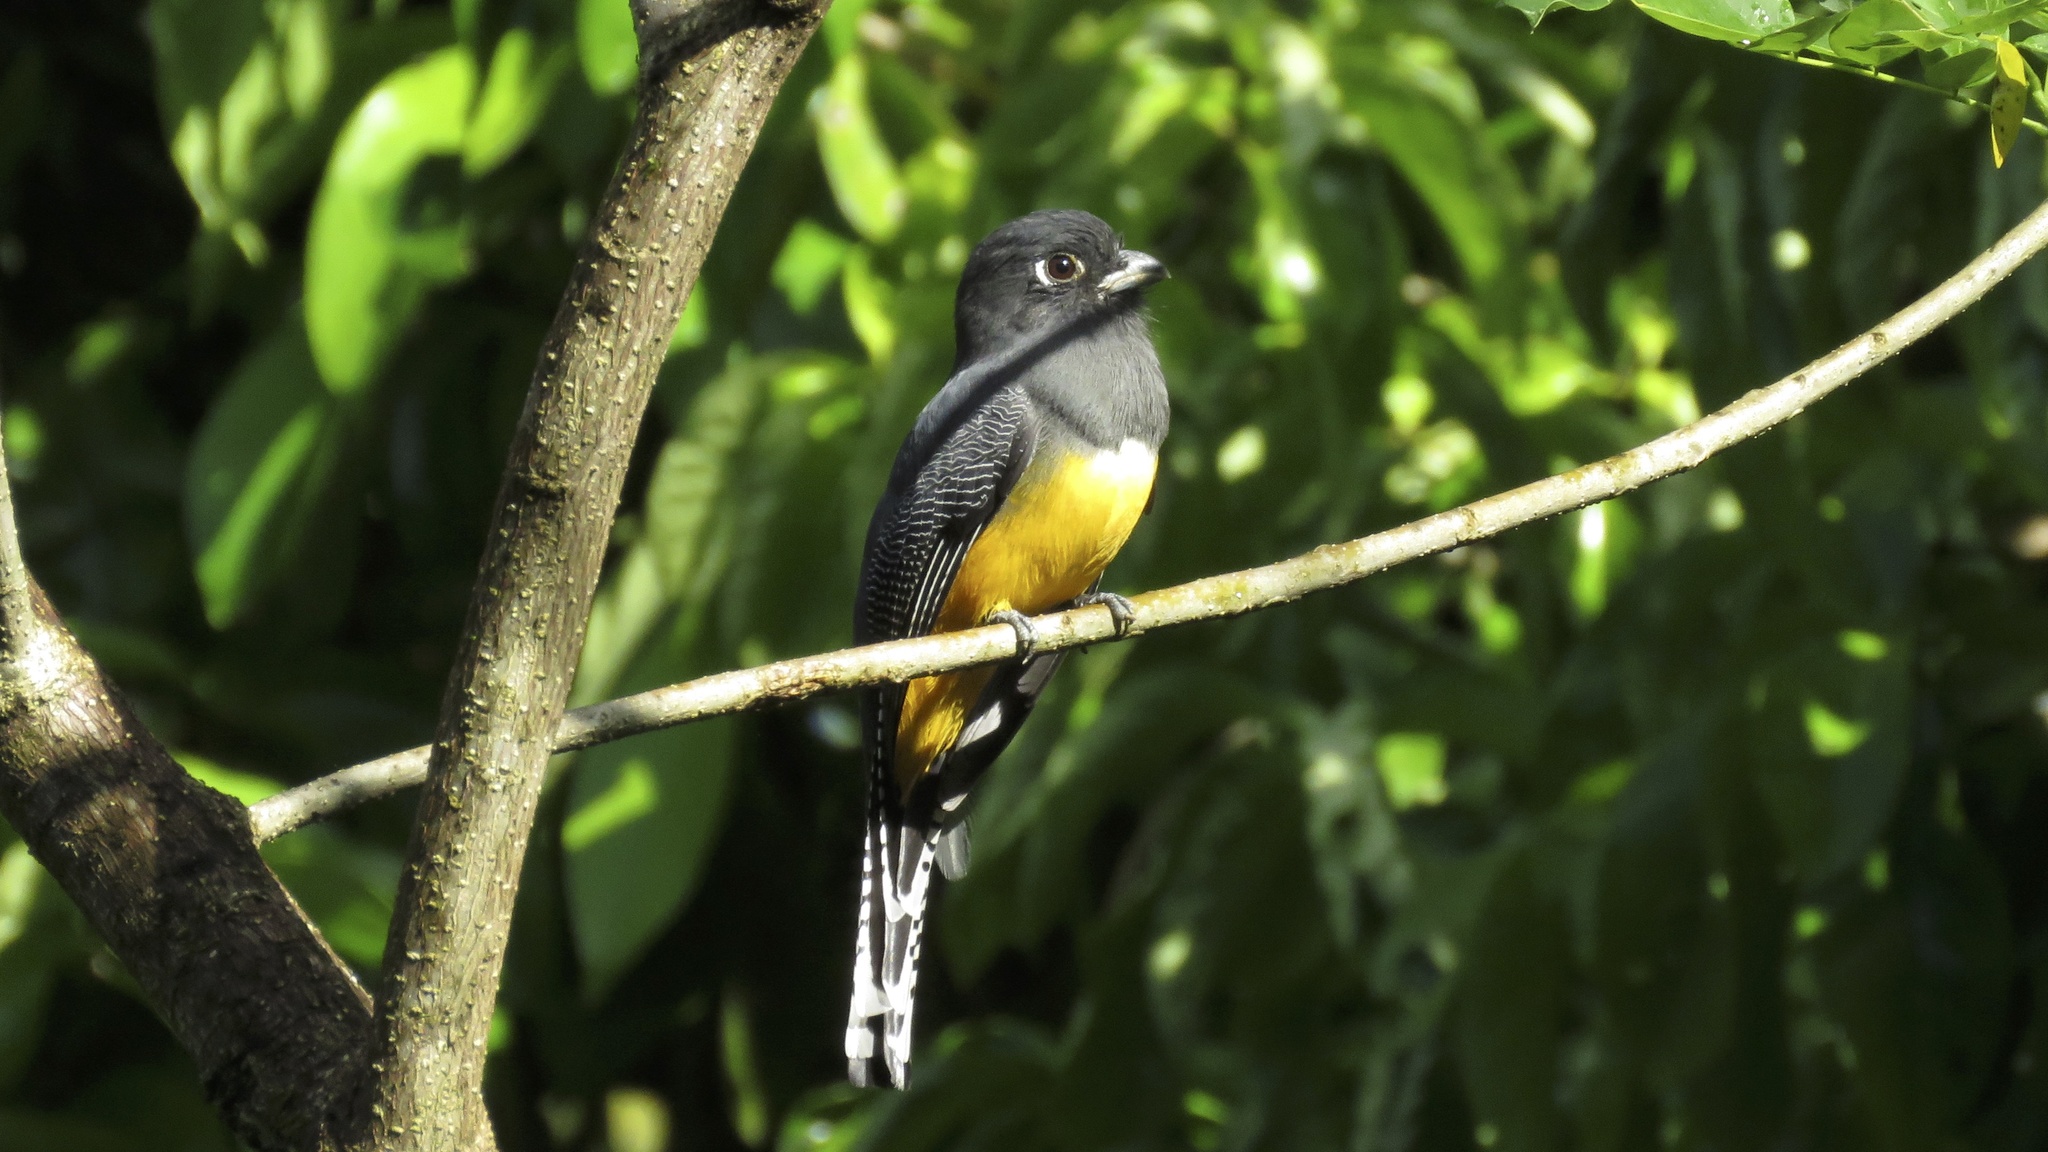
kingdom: Animalia
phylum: Chordata
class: Aves
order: Trogoniformes
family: Trogonidae
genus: Trogon
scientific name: Trogon caligatus
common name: Gartered trogon
